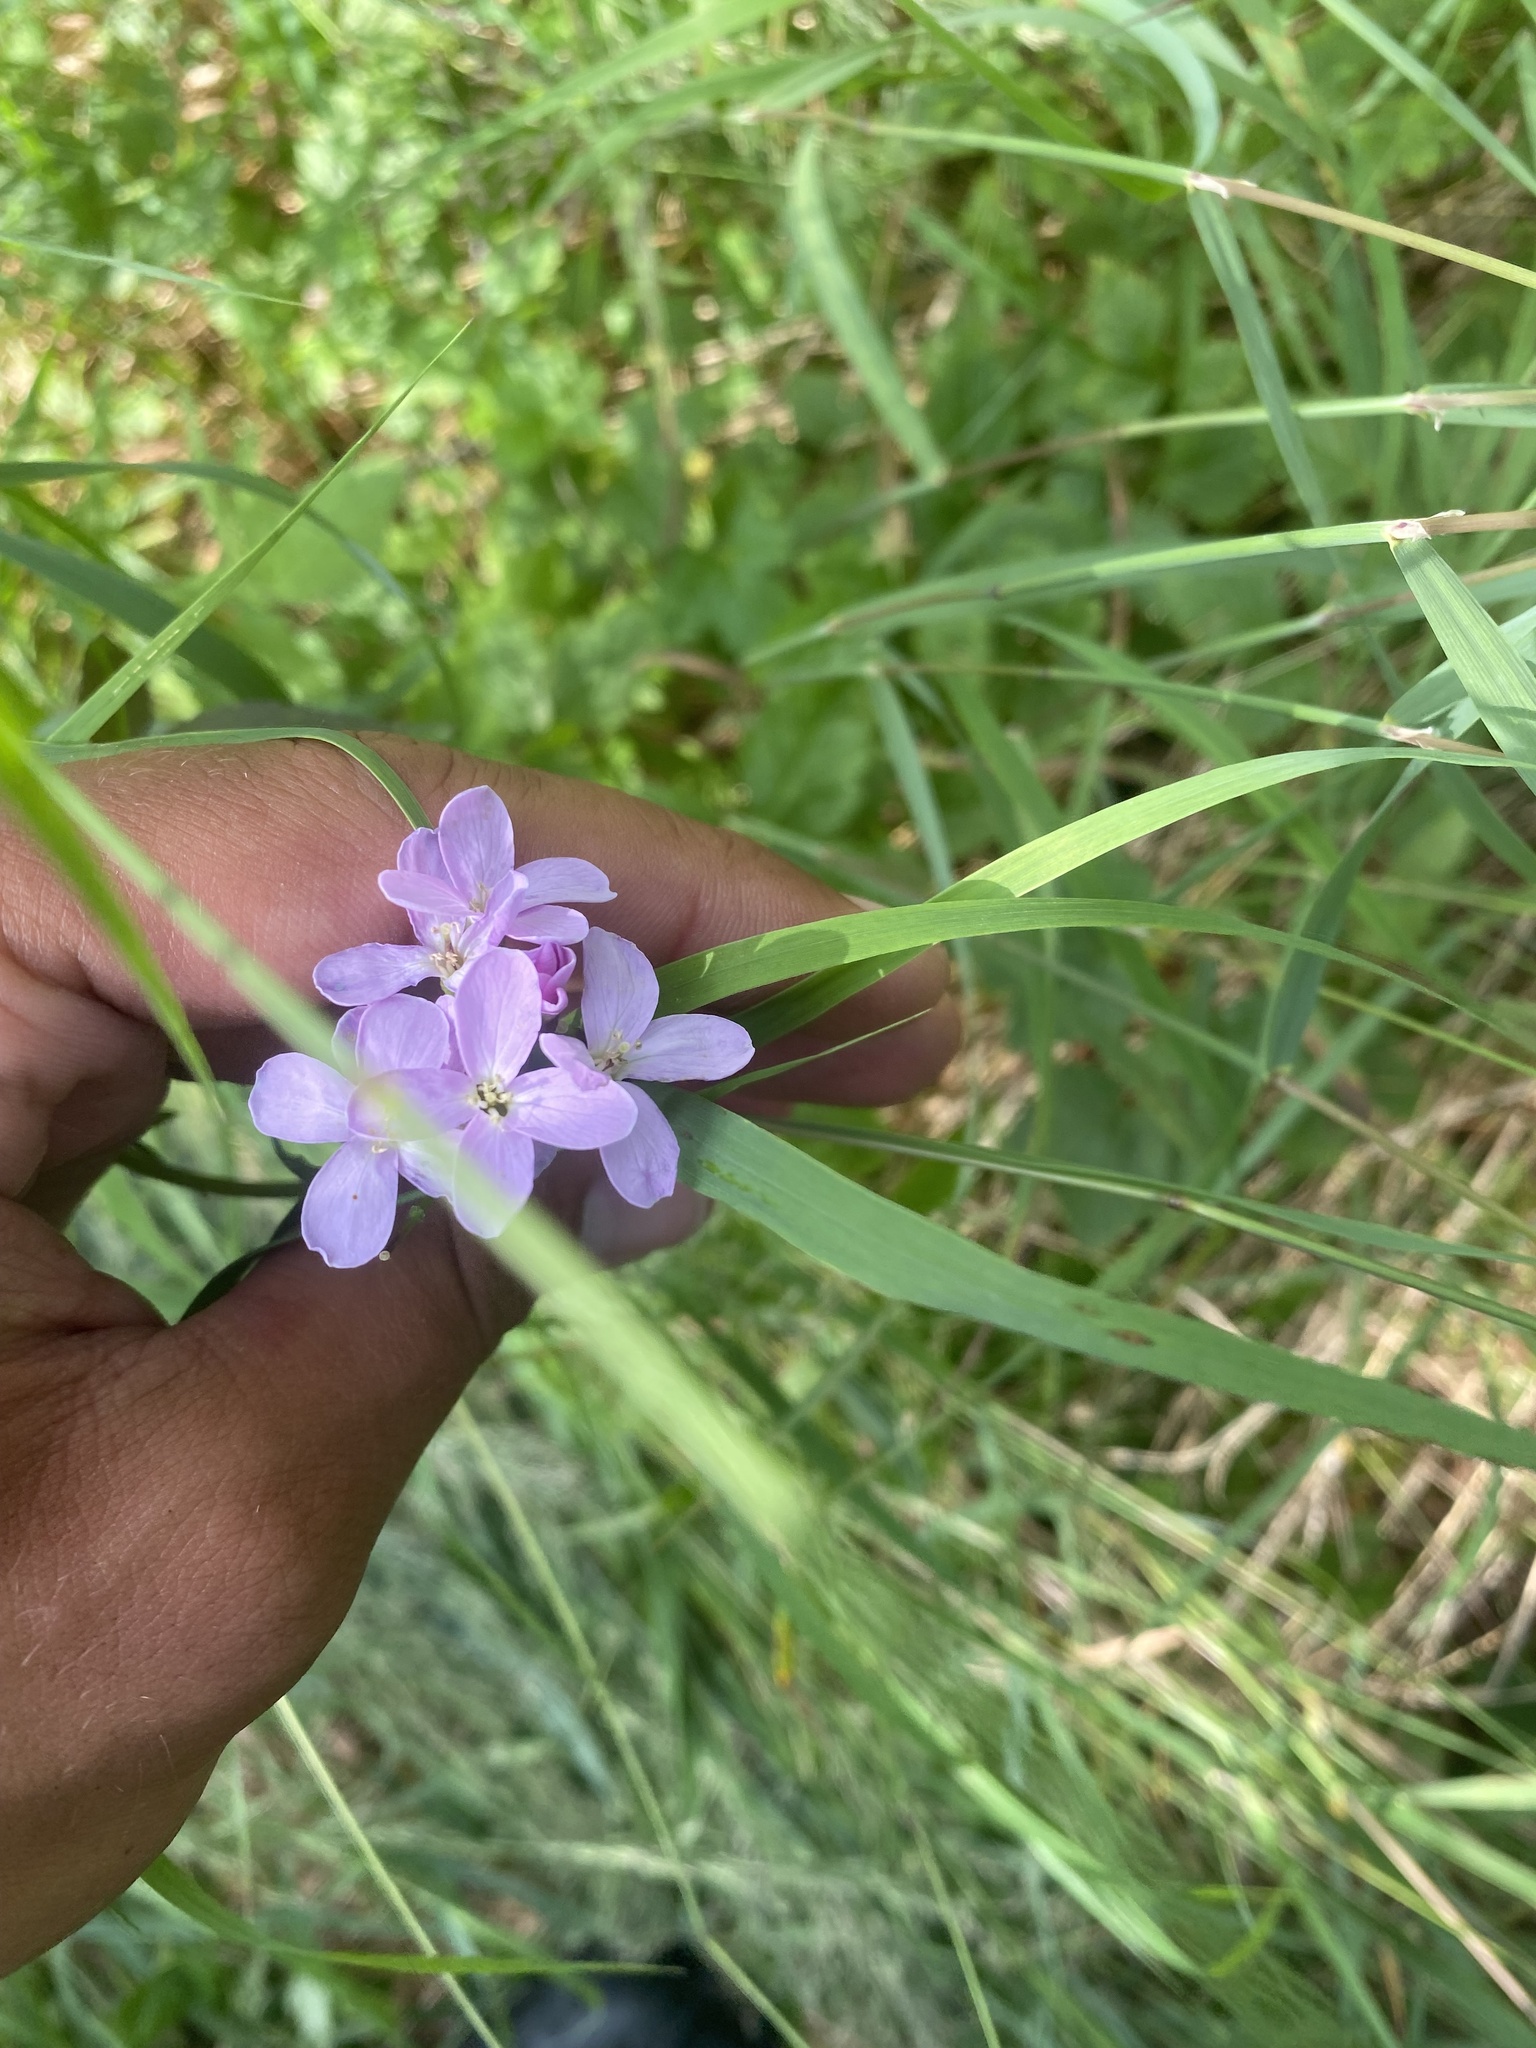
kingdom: Plantae
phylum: Tracheophyta
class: Magnoliopsida
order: Brassicales
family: Brassicaceae
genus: Cardamine
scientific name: Cardamine macrophylla
